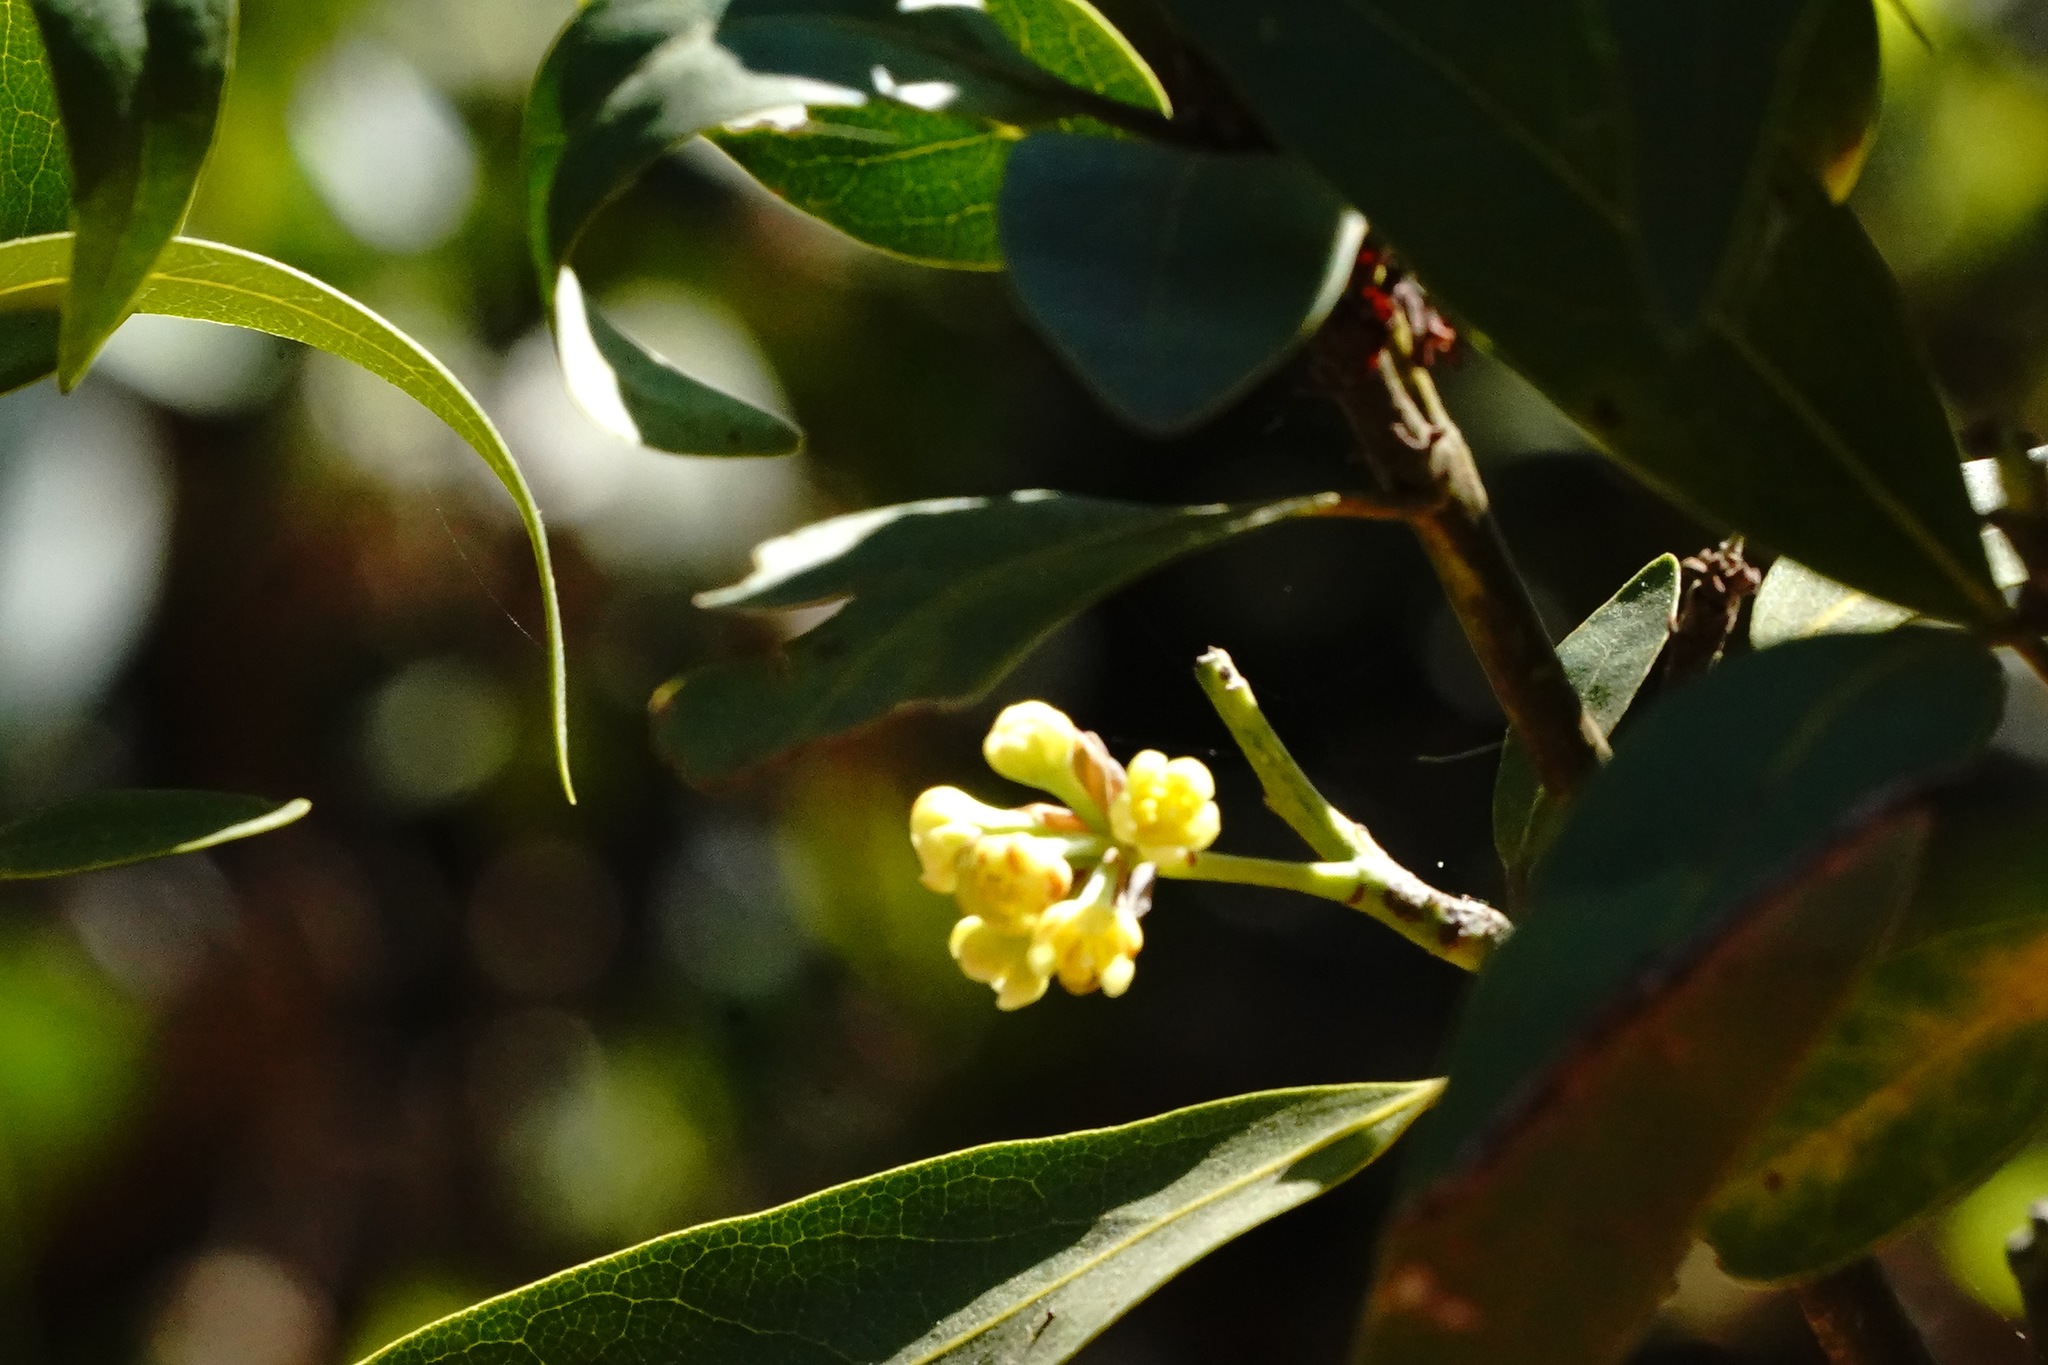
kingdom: Plantae
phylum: Tracheophyta
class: Magnoliopsida
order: Laurales
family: Lauraceae
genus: Umbellularia
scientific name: Umbellularia californica
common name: California bay
